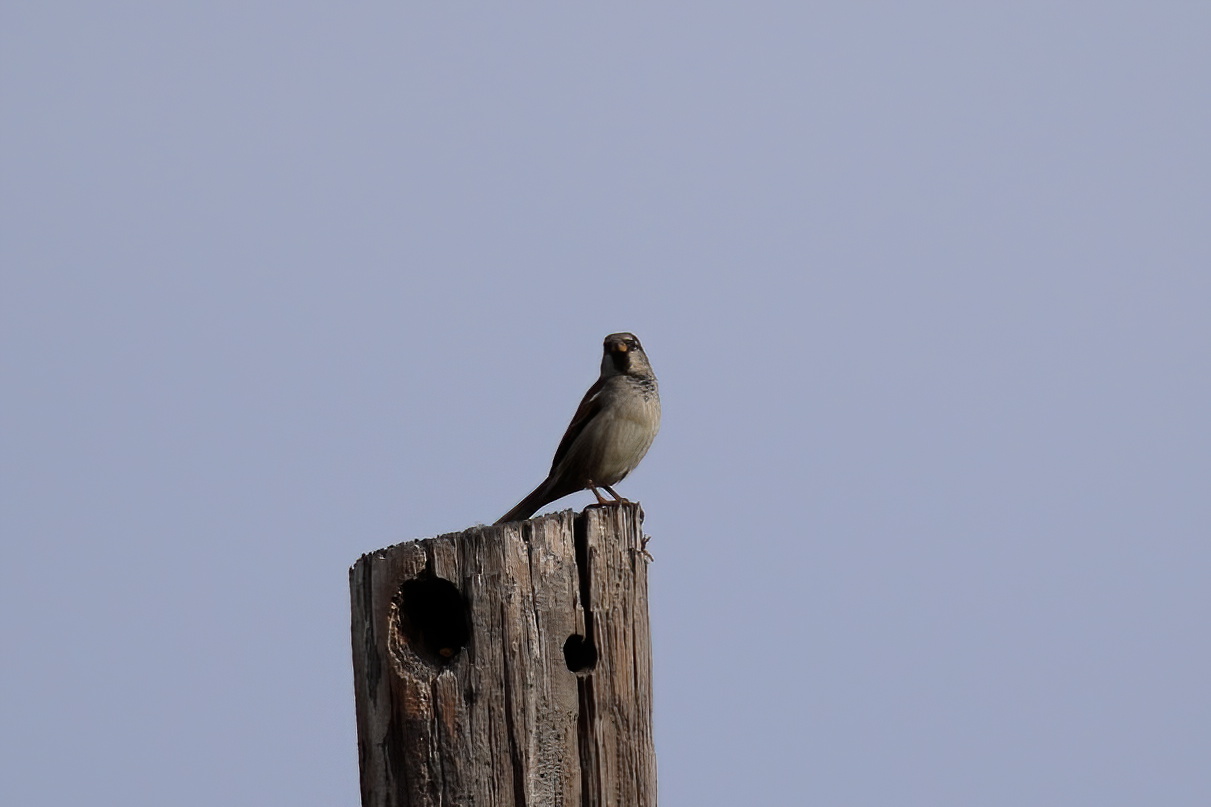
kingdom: Animalia
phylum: Chordata
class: Aves
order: Passeriformes
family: Passeridae
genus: Passer
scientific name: Passer domesticus
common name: House sparrow
